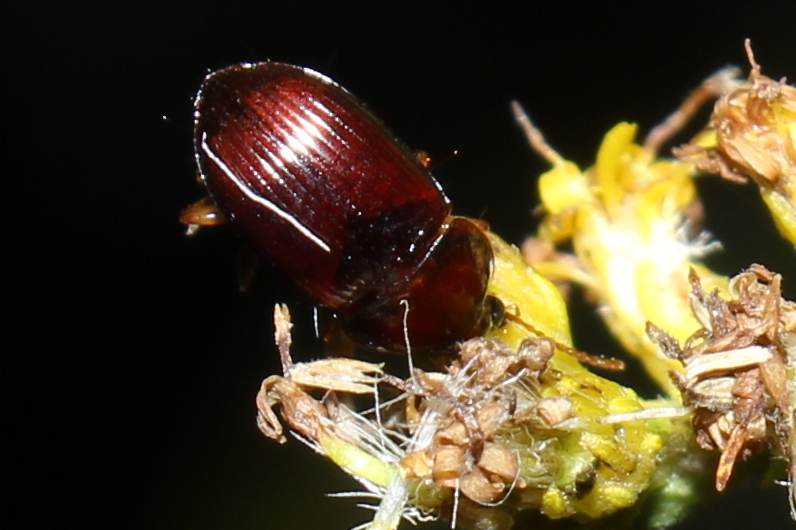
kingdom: Animalia
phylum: Arthropoda
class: Insecta
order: Coleoptera
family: Carabidae
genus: Amara
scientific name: Amara rubrica
